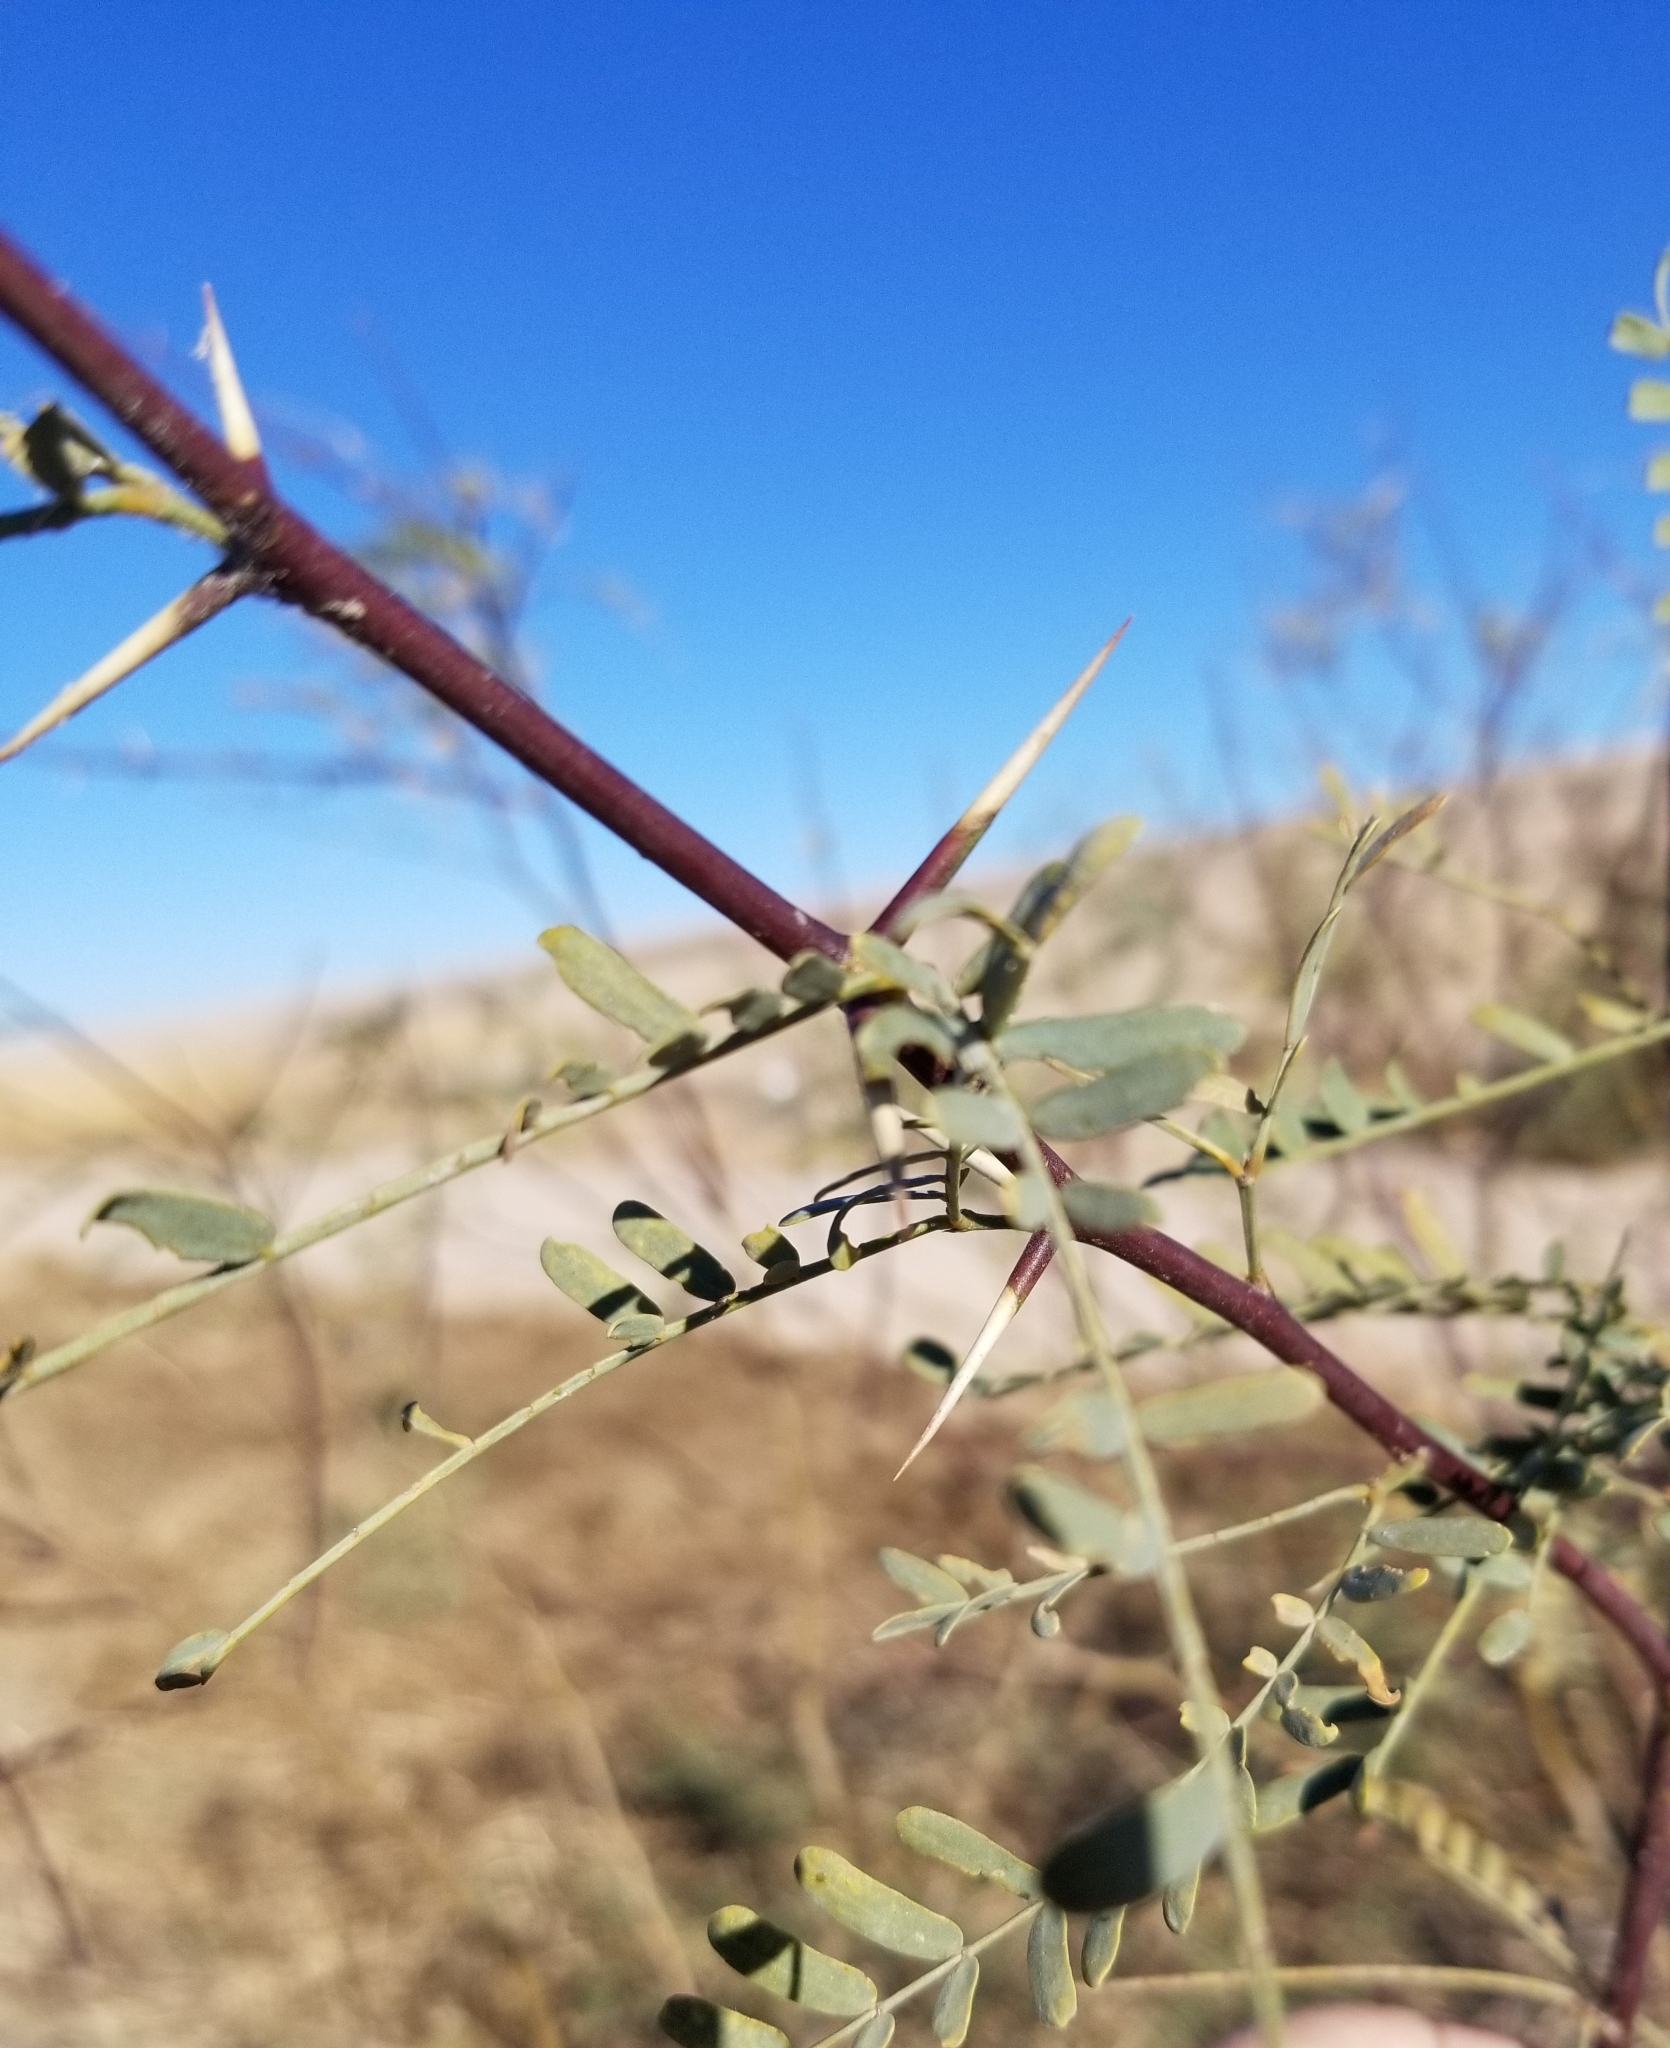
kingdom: Plantae
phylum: Tracheophyta
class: Magnoliopsida
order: Fabales
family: Fabaceae
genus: Prosopis
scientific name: Prosopis velutina
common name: Velvet mesquite
